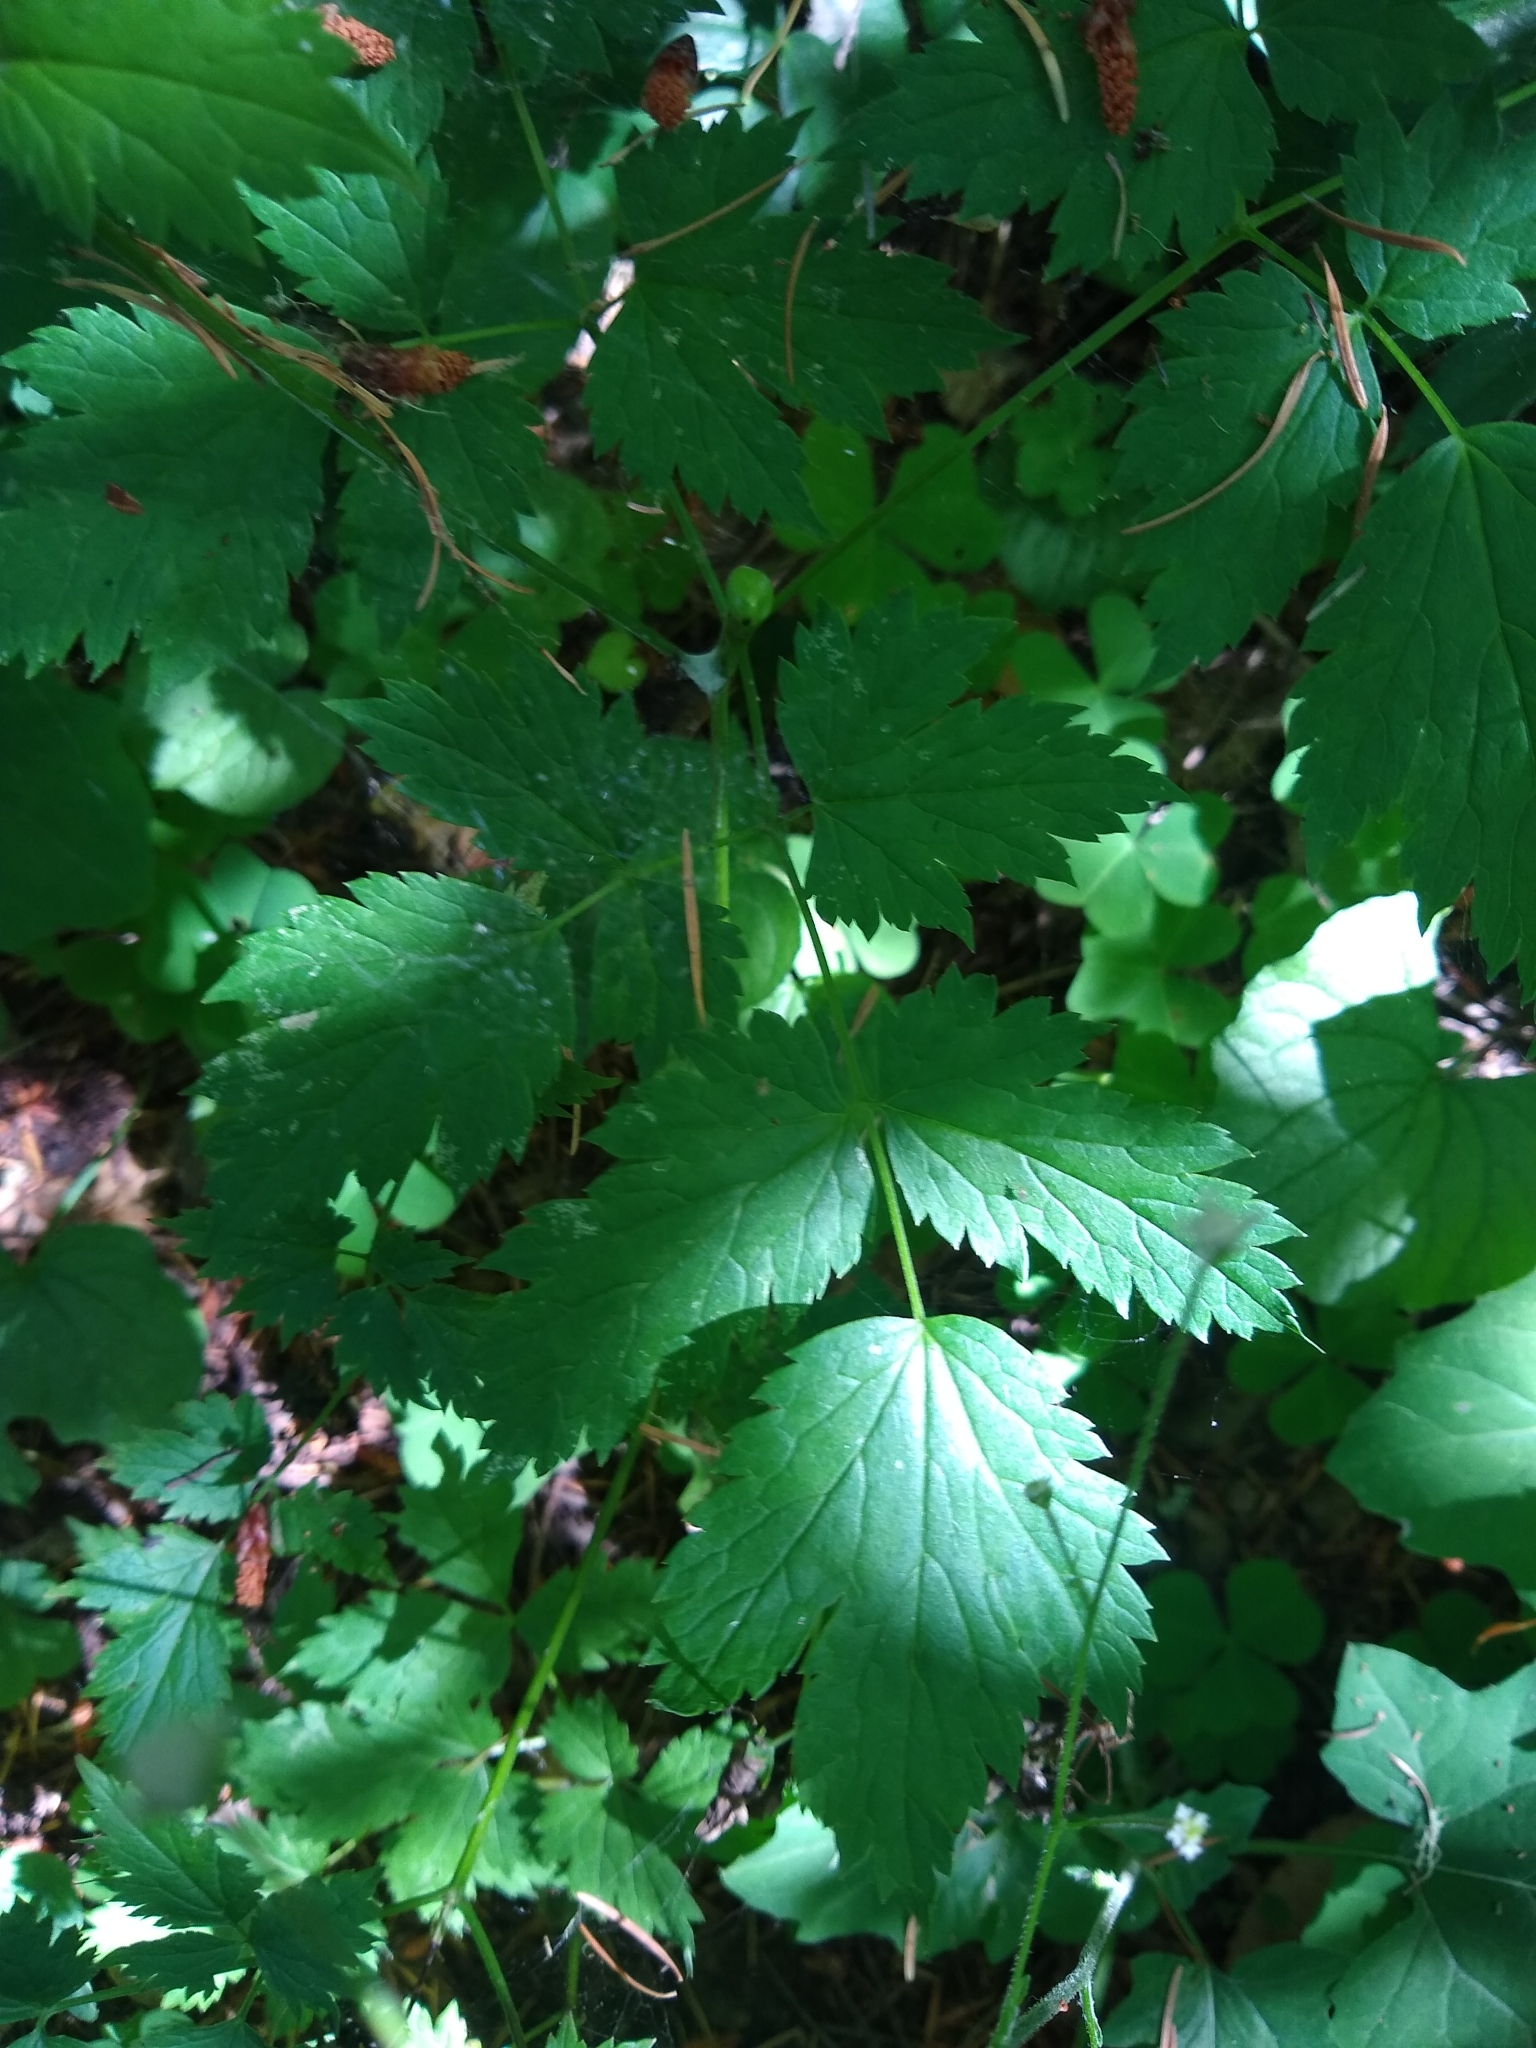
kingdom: Plantae
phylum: Tracheophyta
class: Magnoliopsida
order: Ranunculales
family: Ranunculaceae
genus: Actaea
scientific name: Actaea rubra
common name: Red baneberry
